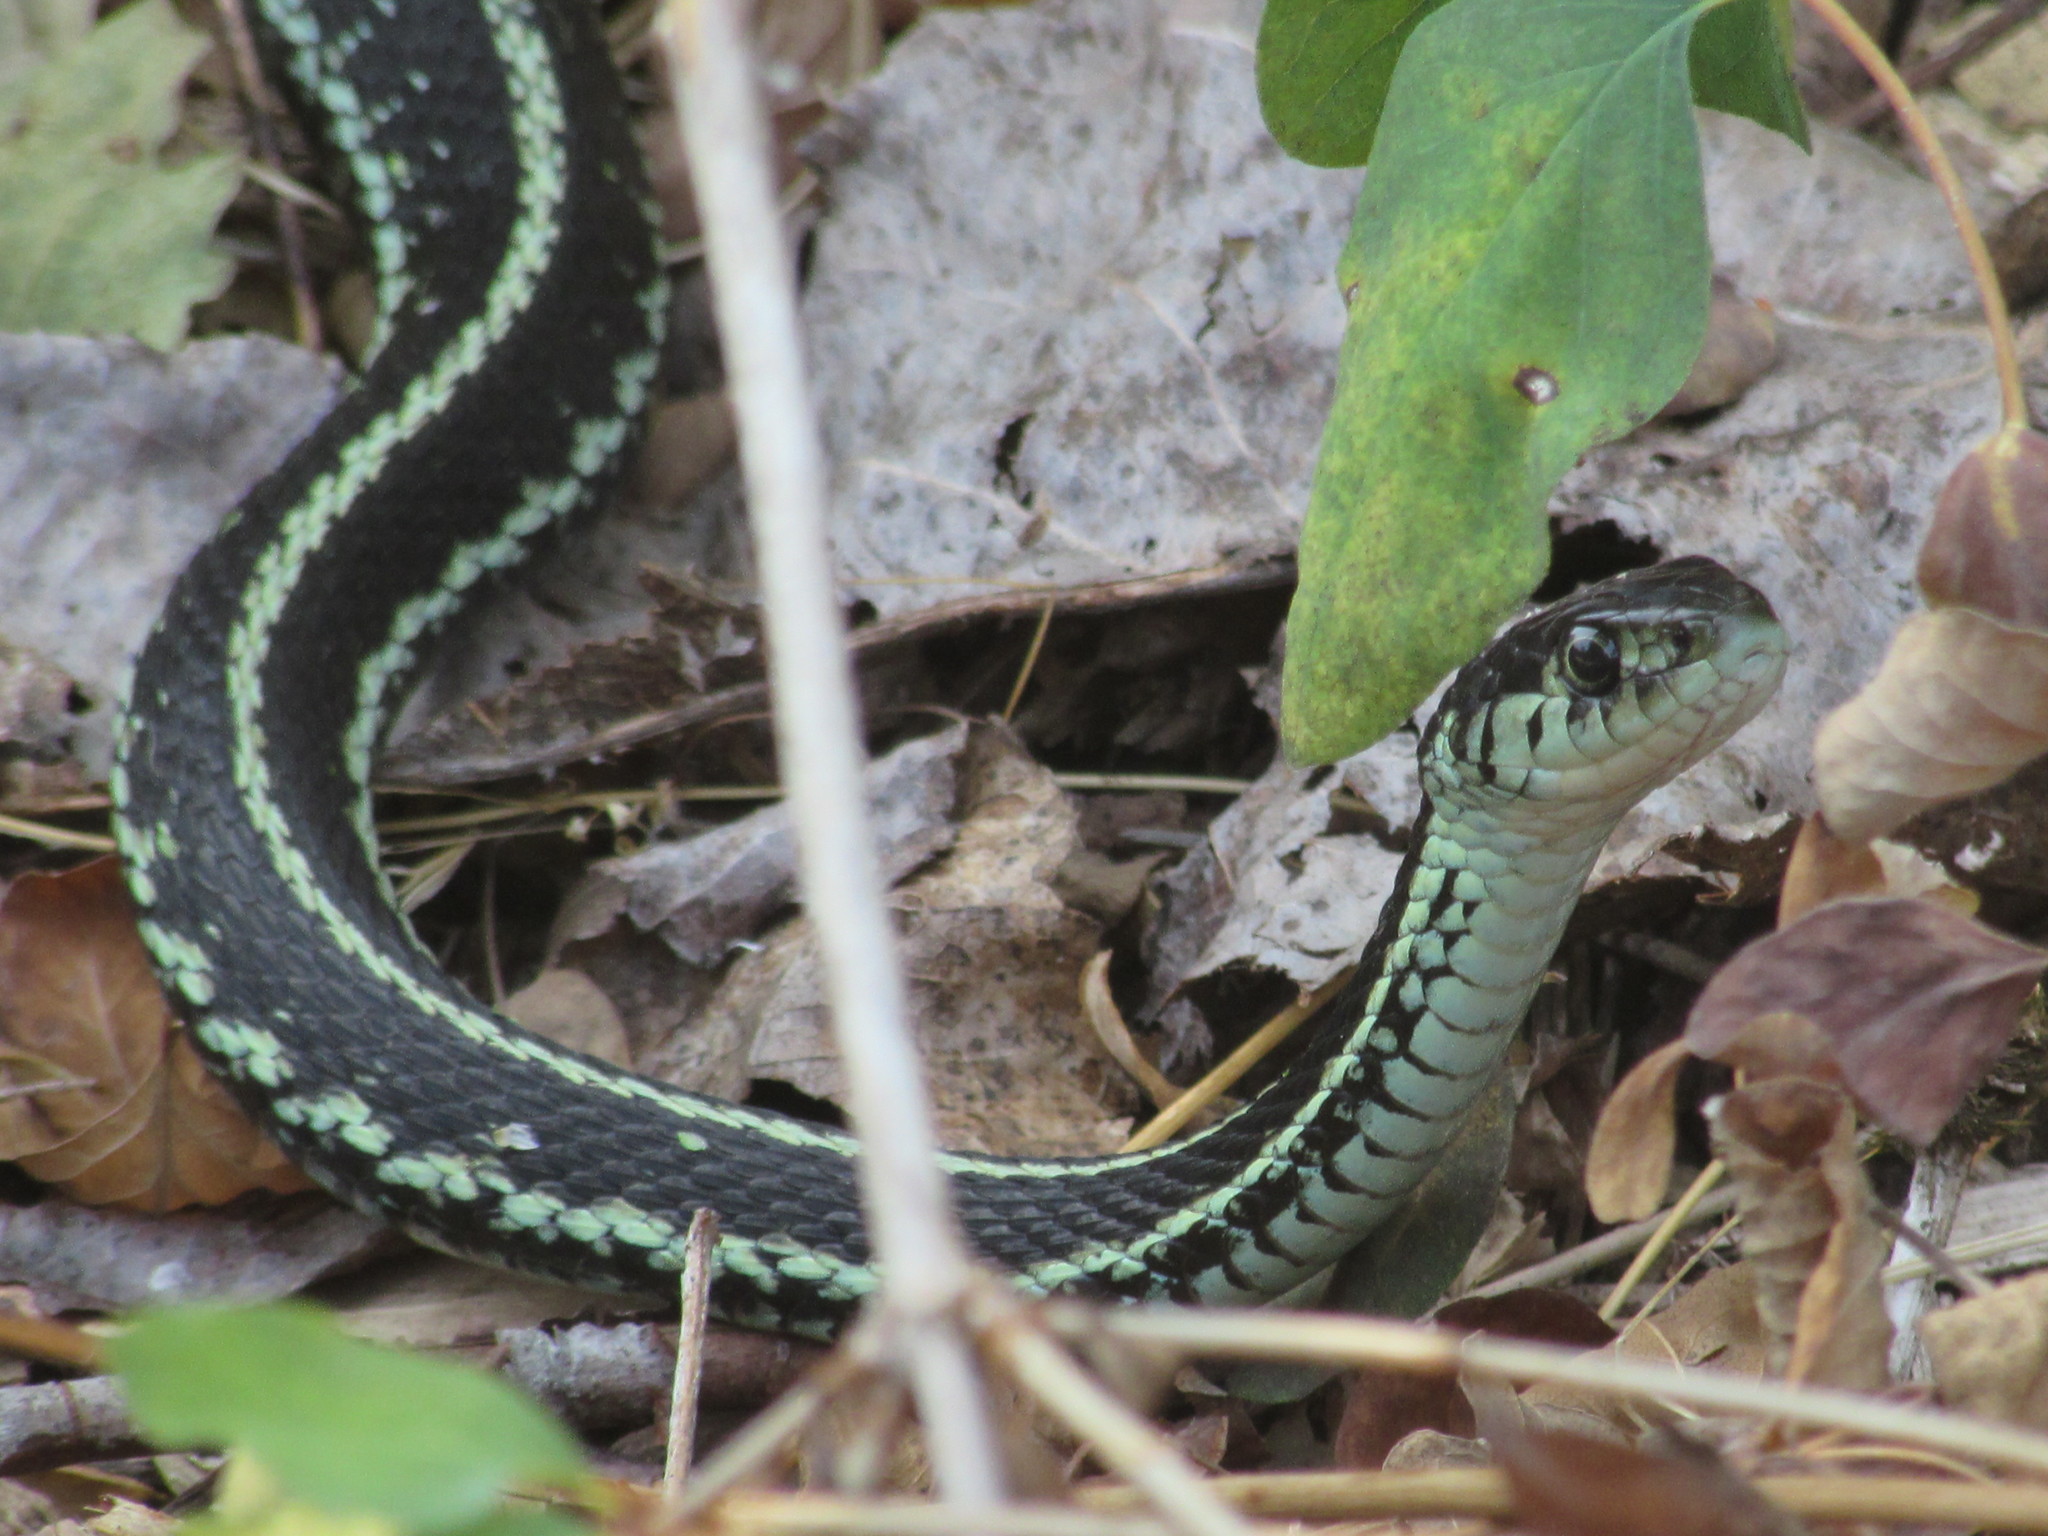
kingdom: Animalia
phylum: Chordata
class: Squamata
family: Colubridae
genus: Thamnophis
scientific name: Thamnophis sirtalis
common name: Common garter snake
